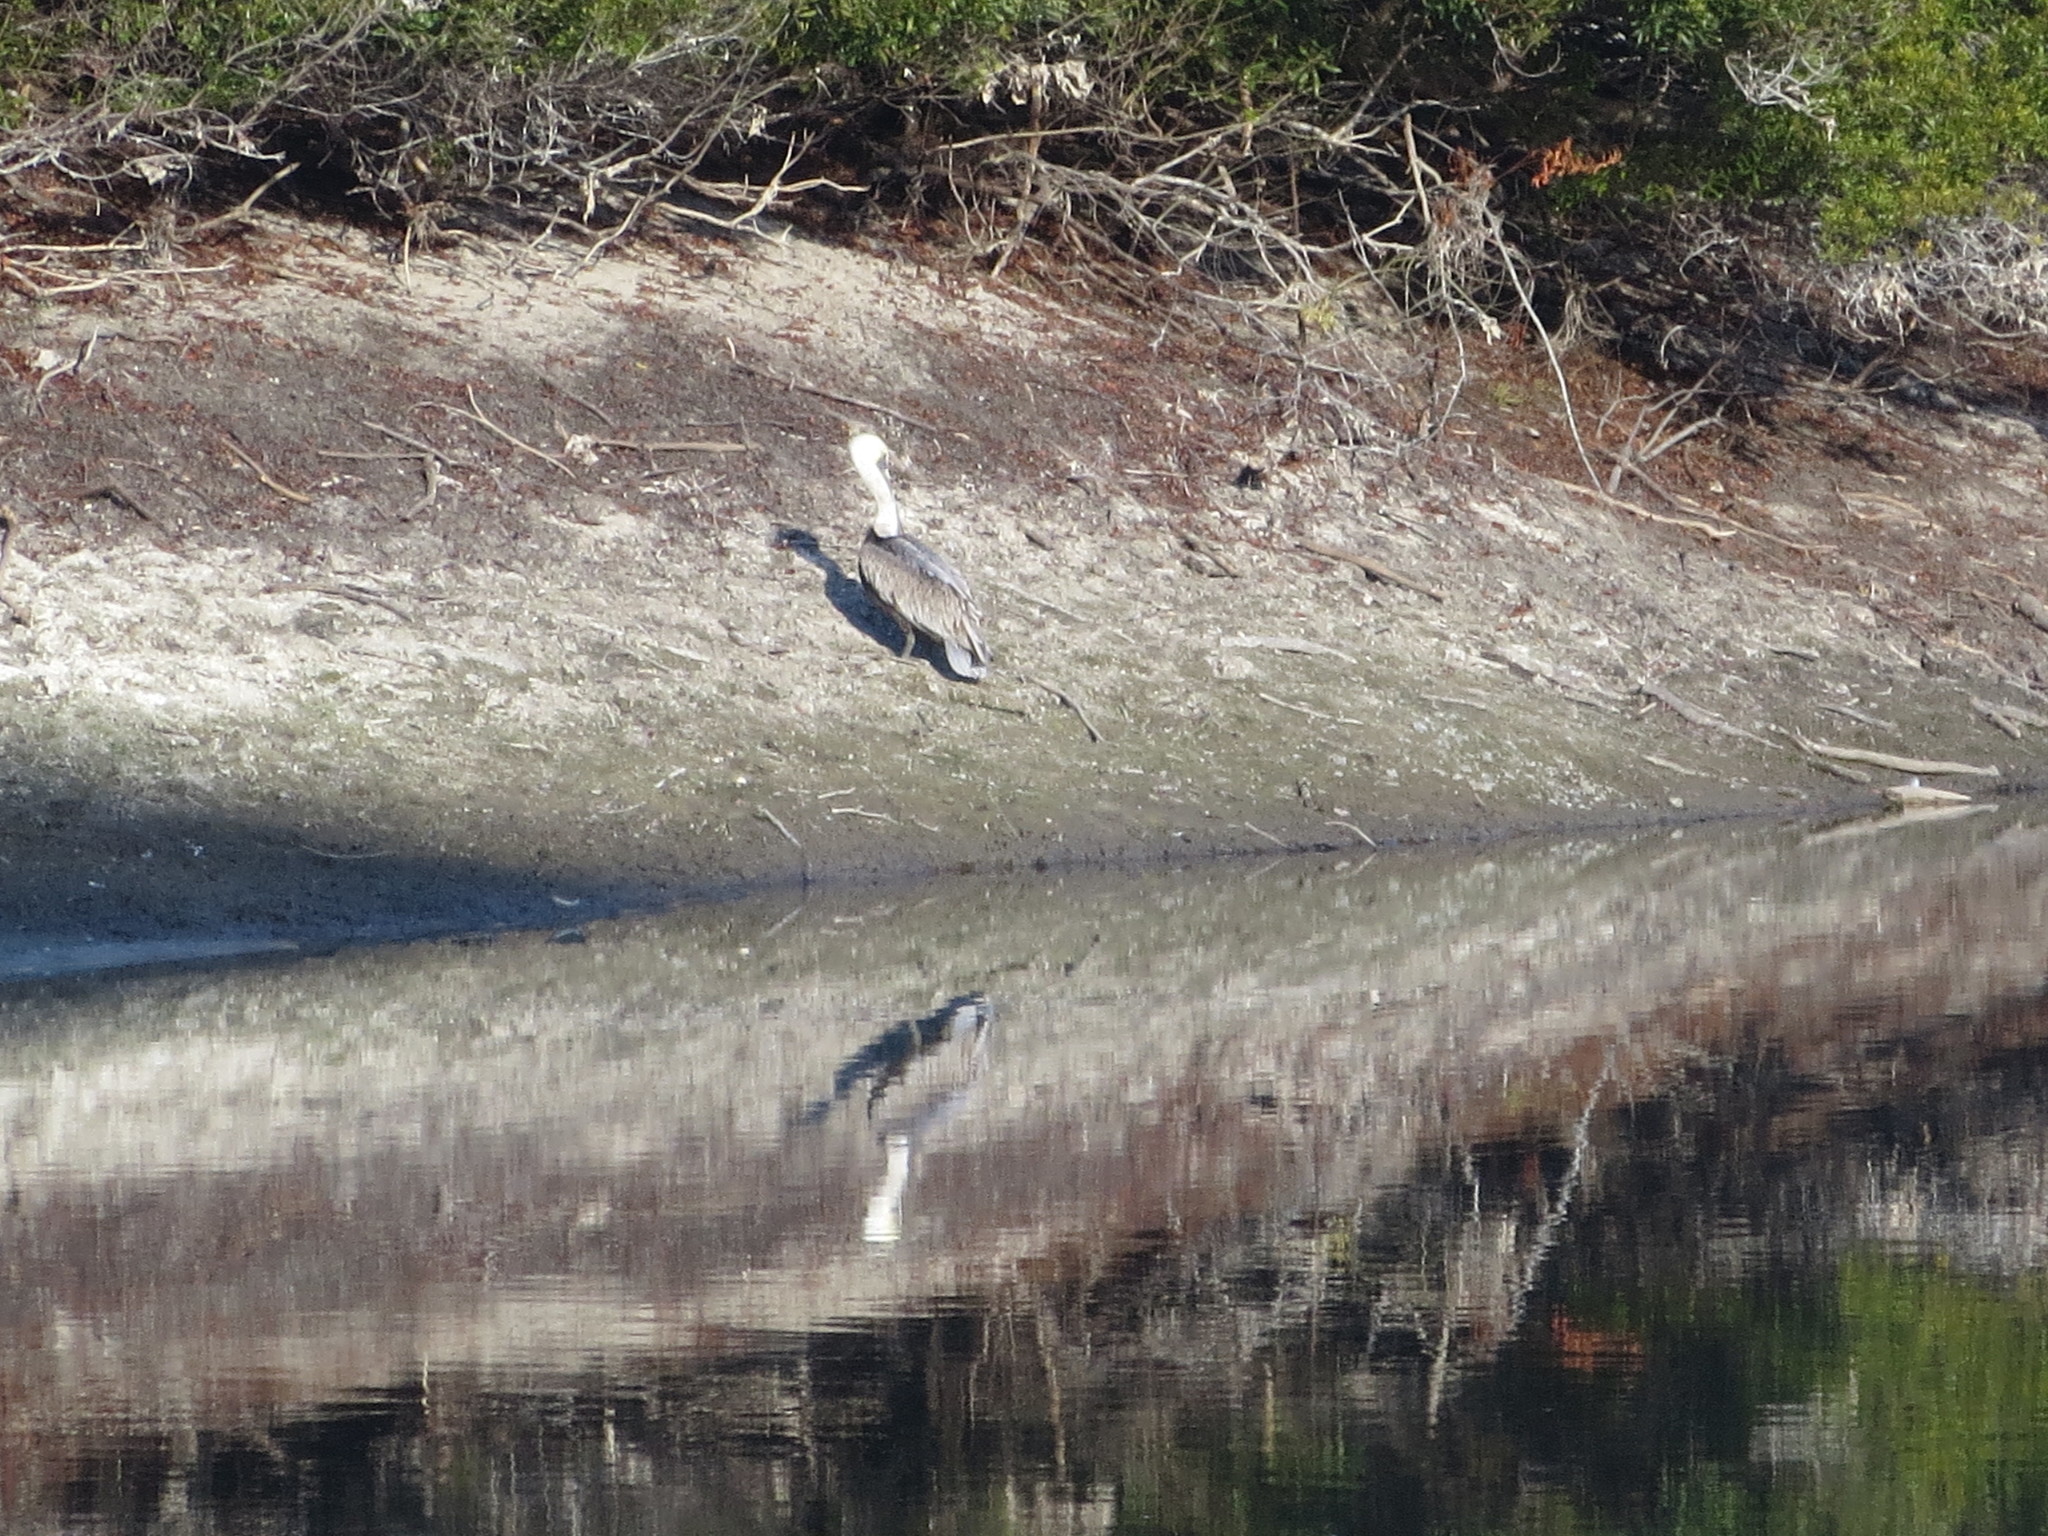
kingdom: Animalia
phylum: Chordata
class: Aves
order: Pelecaniformes
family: Pelecanidae
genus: Pelecanus
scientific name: Pelecanus occidentalis
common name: Brown pelican
